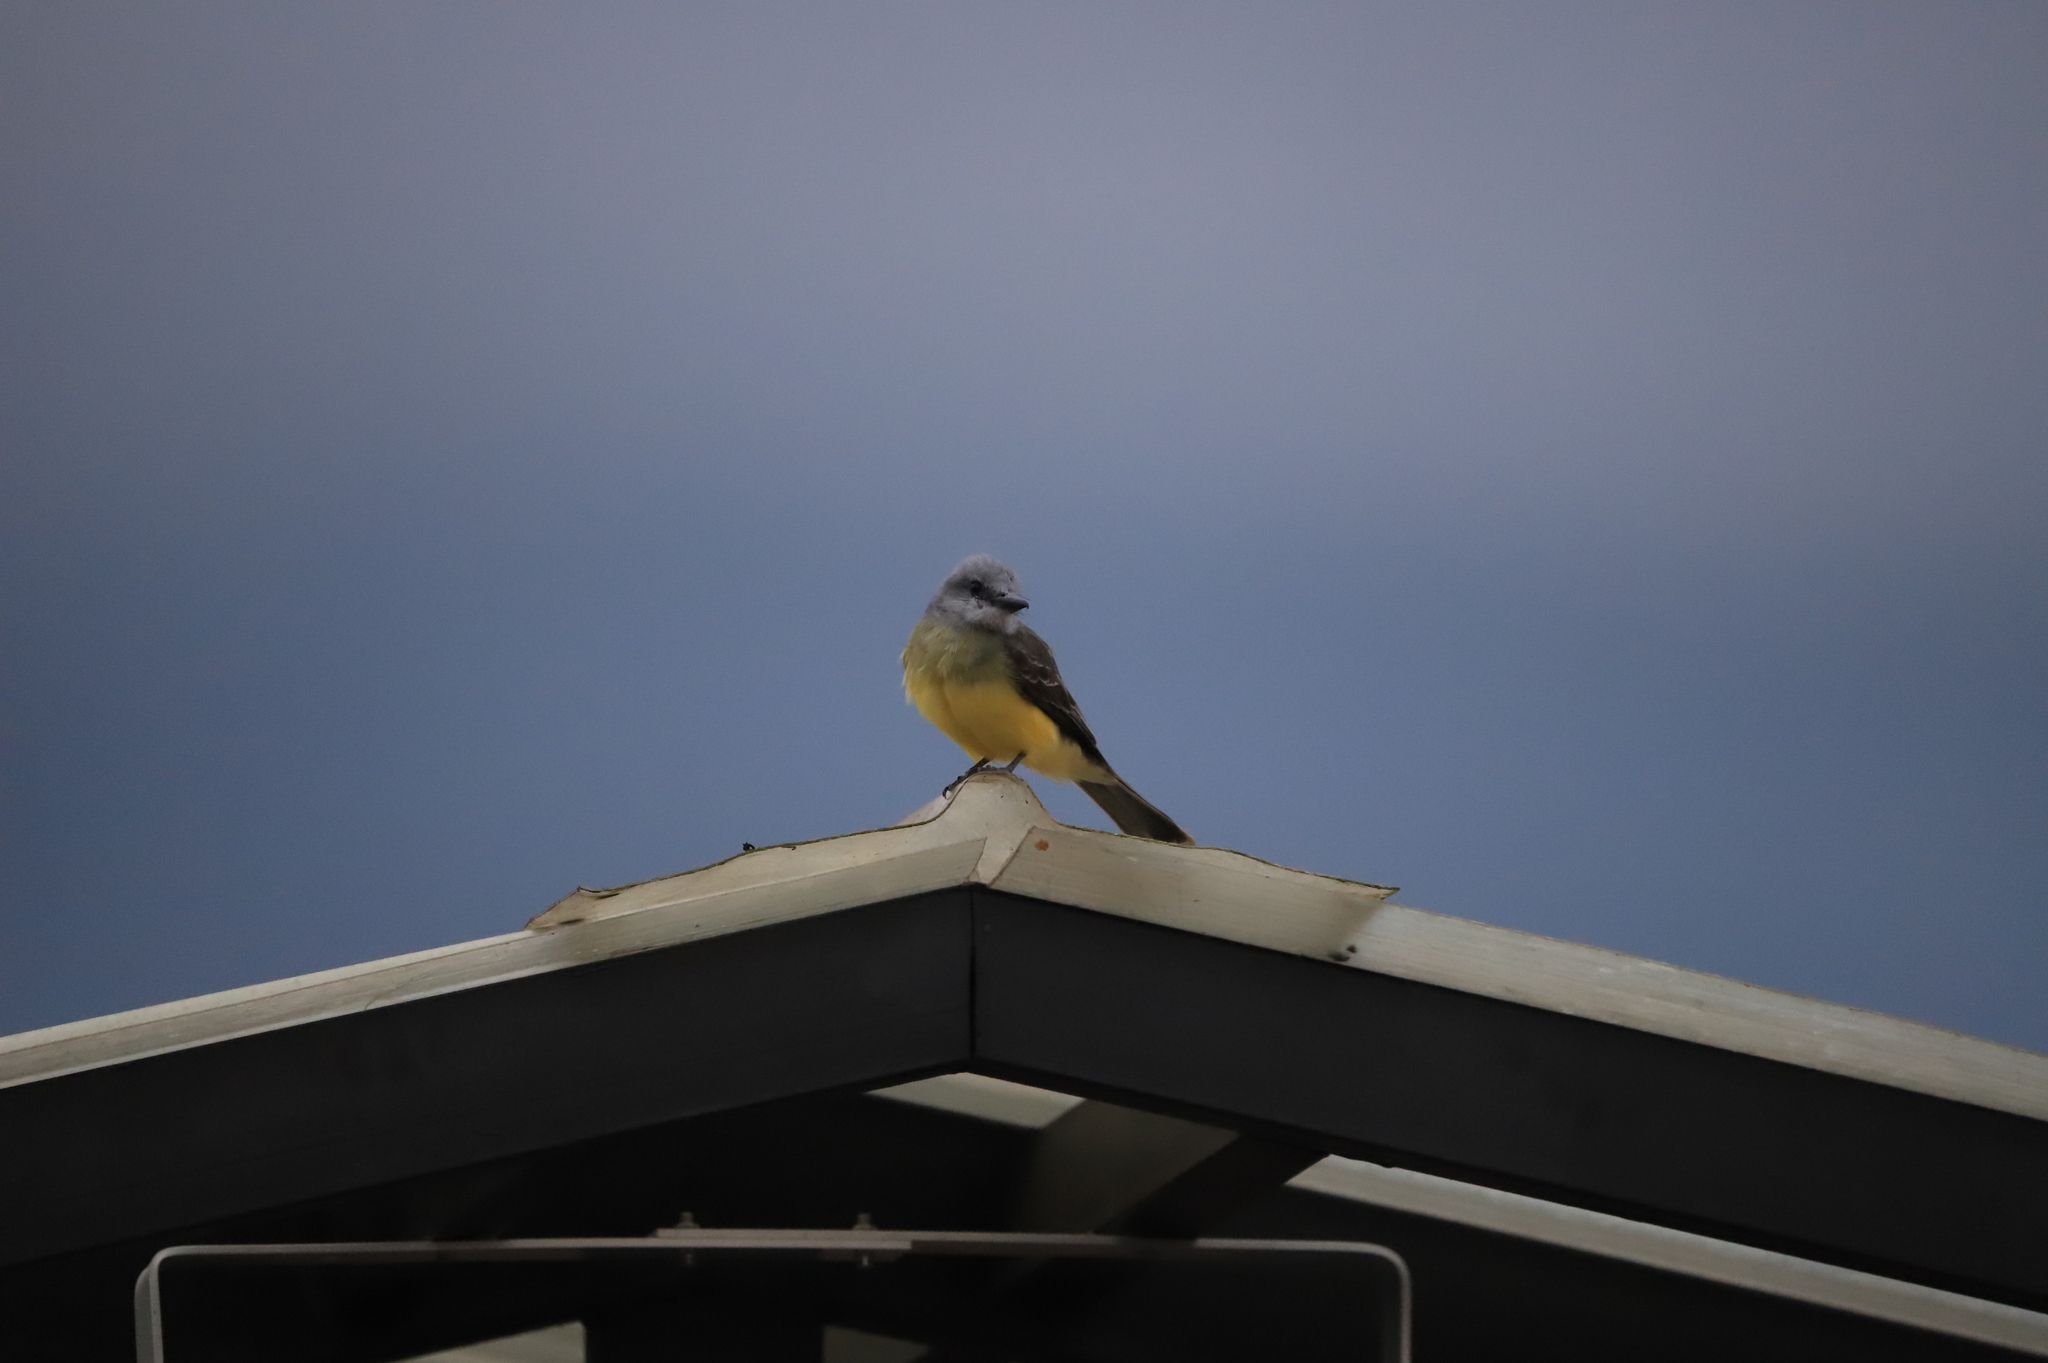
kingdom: Animalia
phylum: Chordata
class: Aves
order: Passeriformes
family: Tyrannidae
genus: Tyrannus
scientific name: Tyrannus melancholicus
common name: Tropical kingbird
